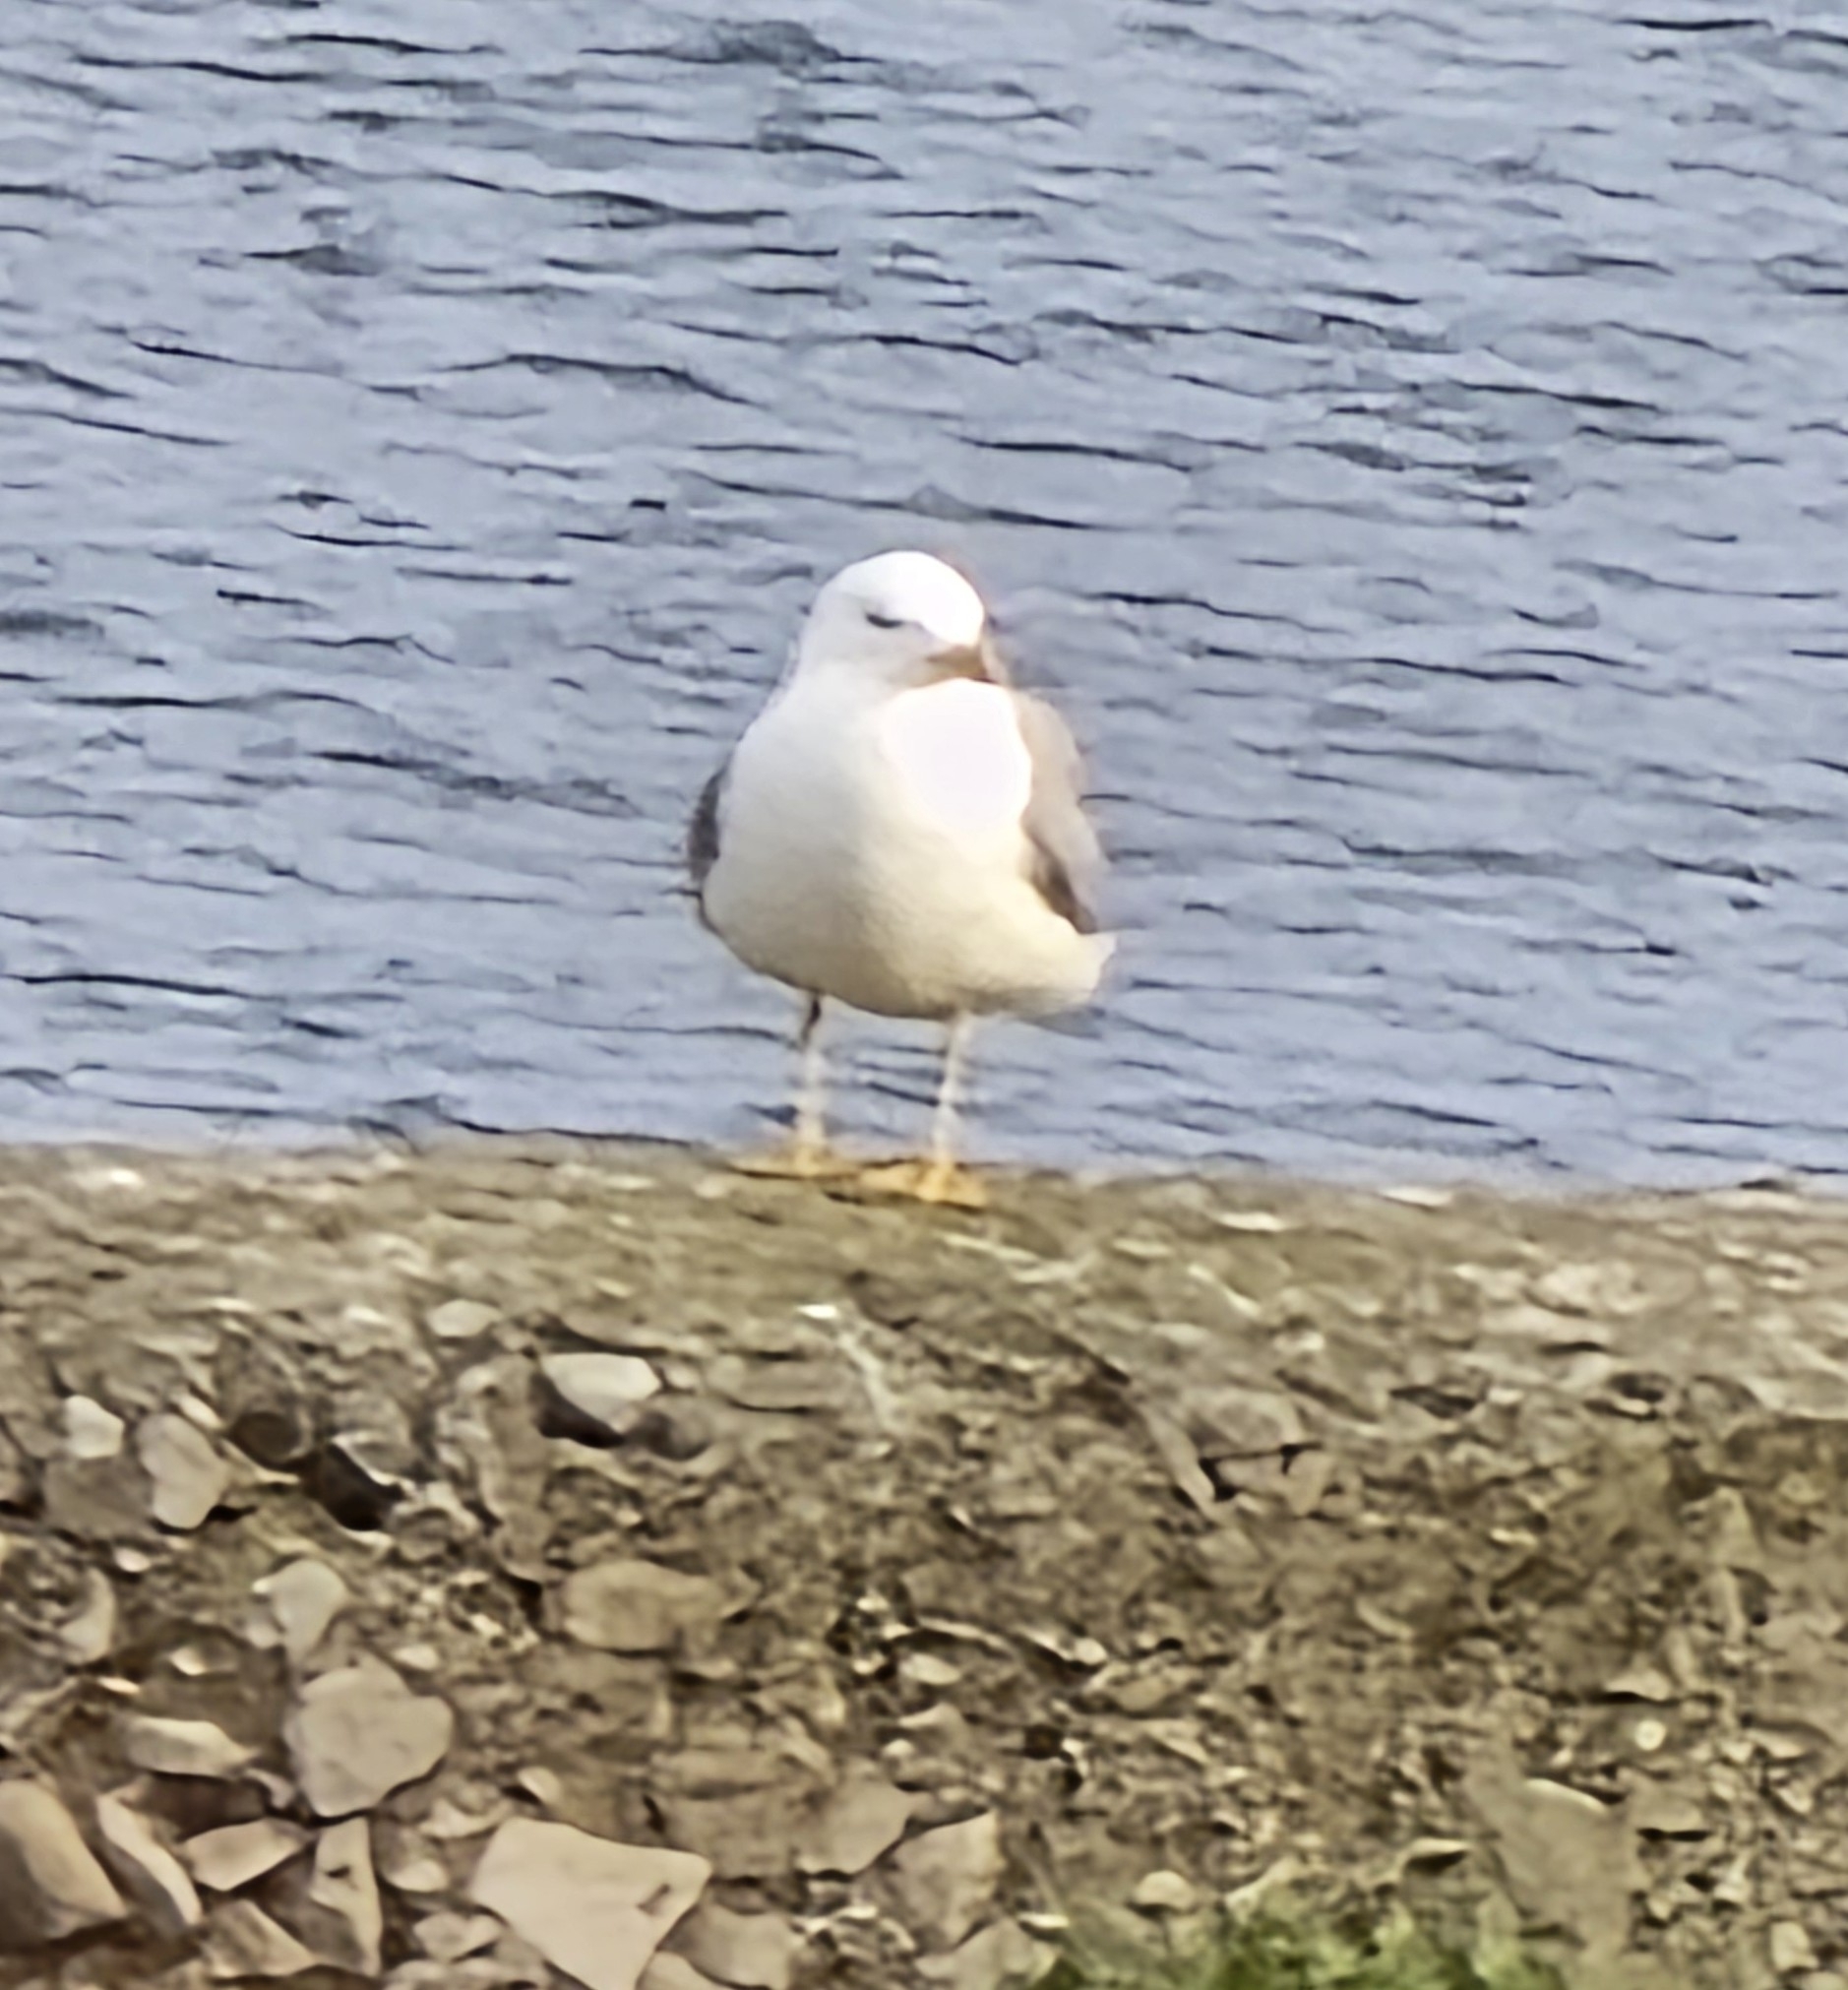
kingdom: Animalia
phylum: Chordata
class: Aves
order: Charadriiformes
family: Laridae
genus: Larus
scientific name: Larus michahellis
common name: Yellow-legged gull
